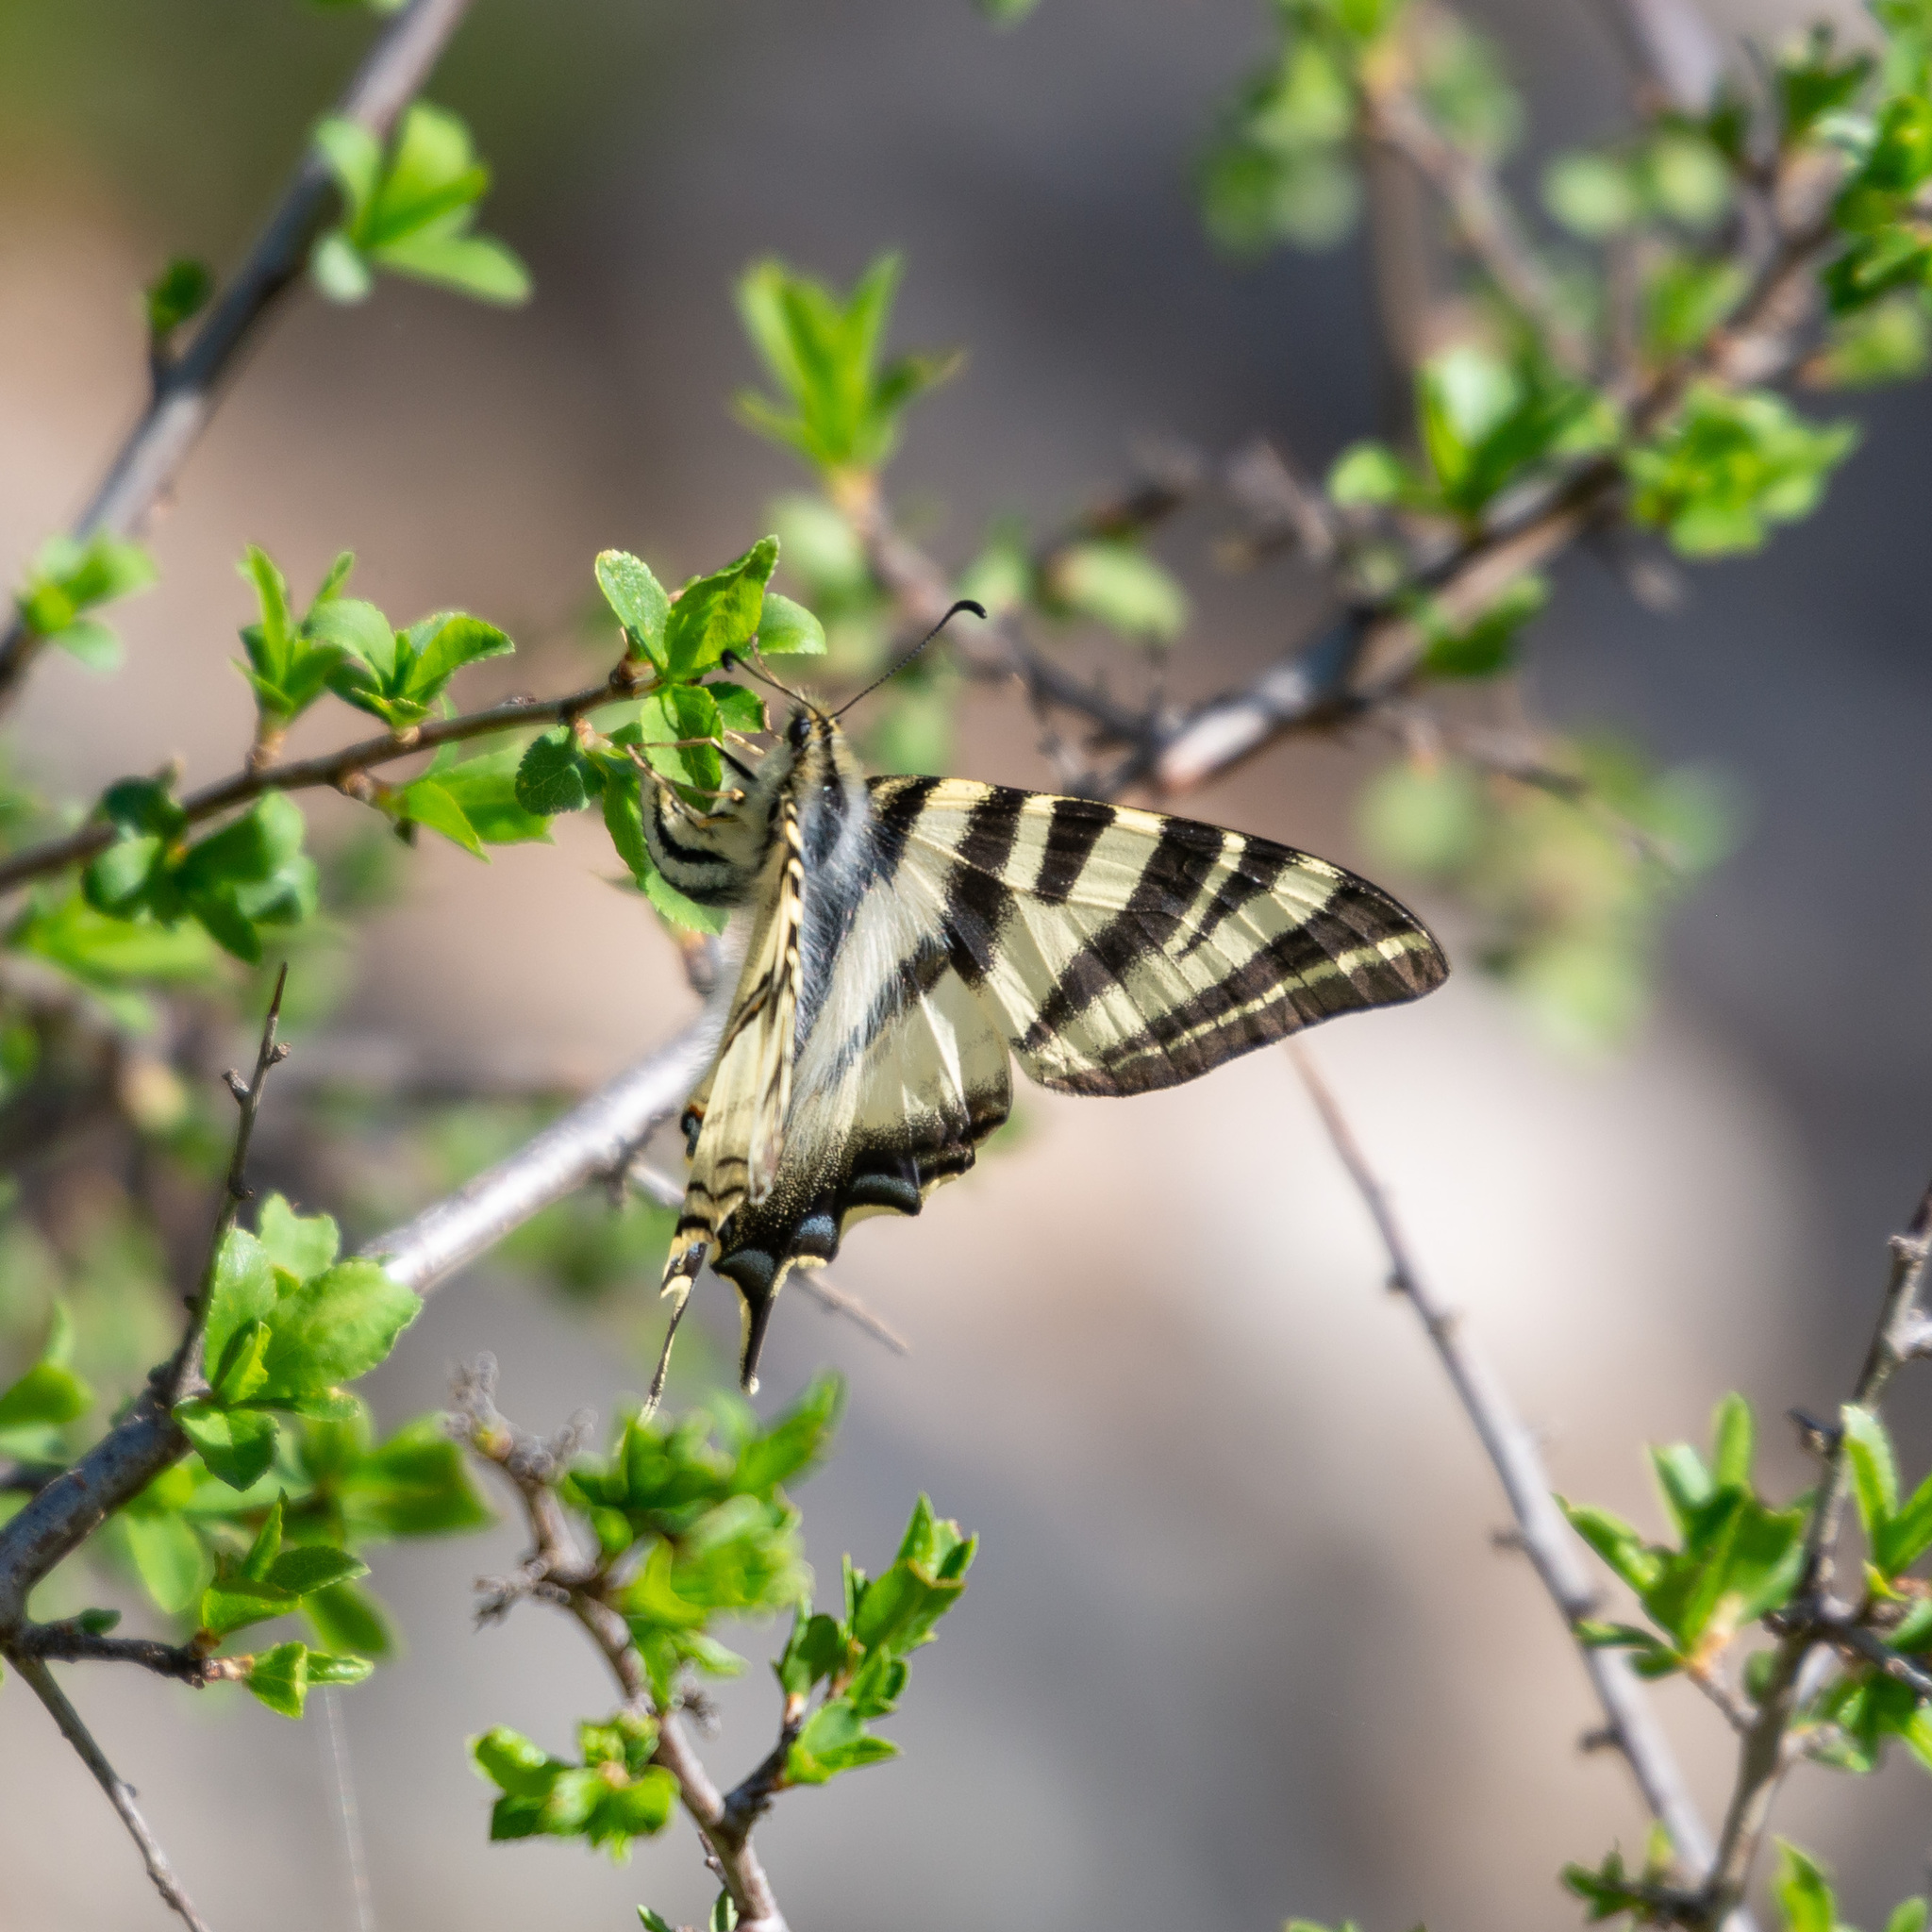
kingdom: Animalia
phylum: Arthropoda
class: Insecta
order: Lepidoptera
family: Papilionidae
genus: Iphiclides
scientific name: Iphiclides feisthamelii
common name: Iberian scarce swallowtail
